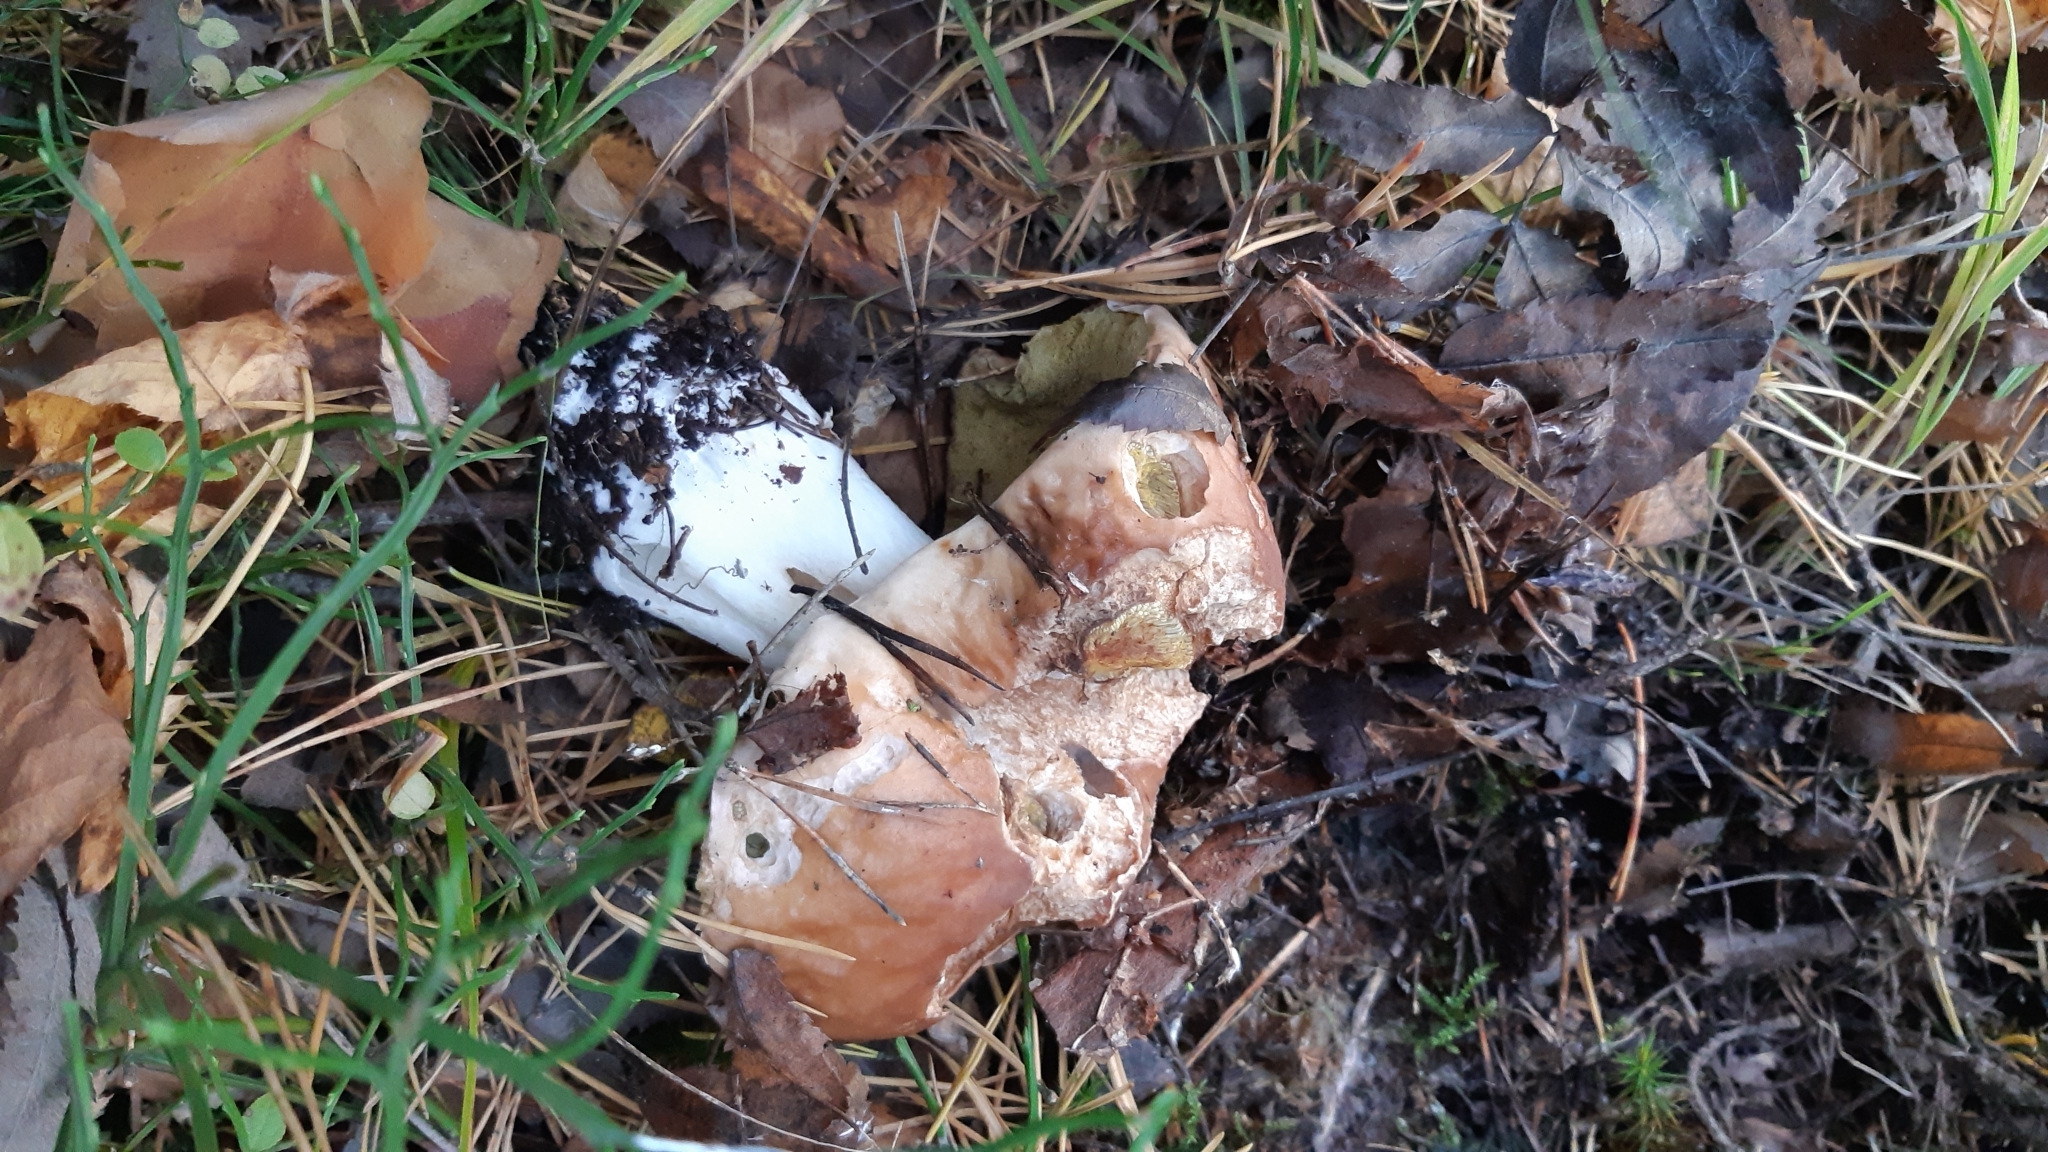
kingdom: Fungi
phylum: Basidiomycota
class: Agaricomycetes
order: Boletales
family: Boletaceae
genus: Boletus
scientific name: Boletus edulis
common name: Cep
